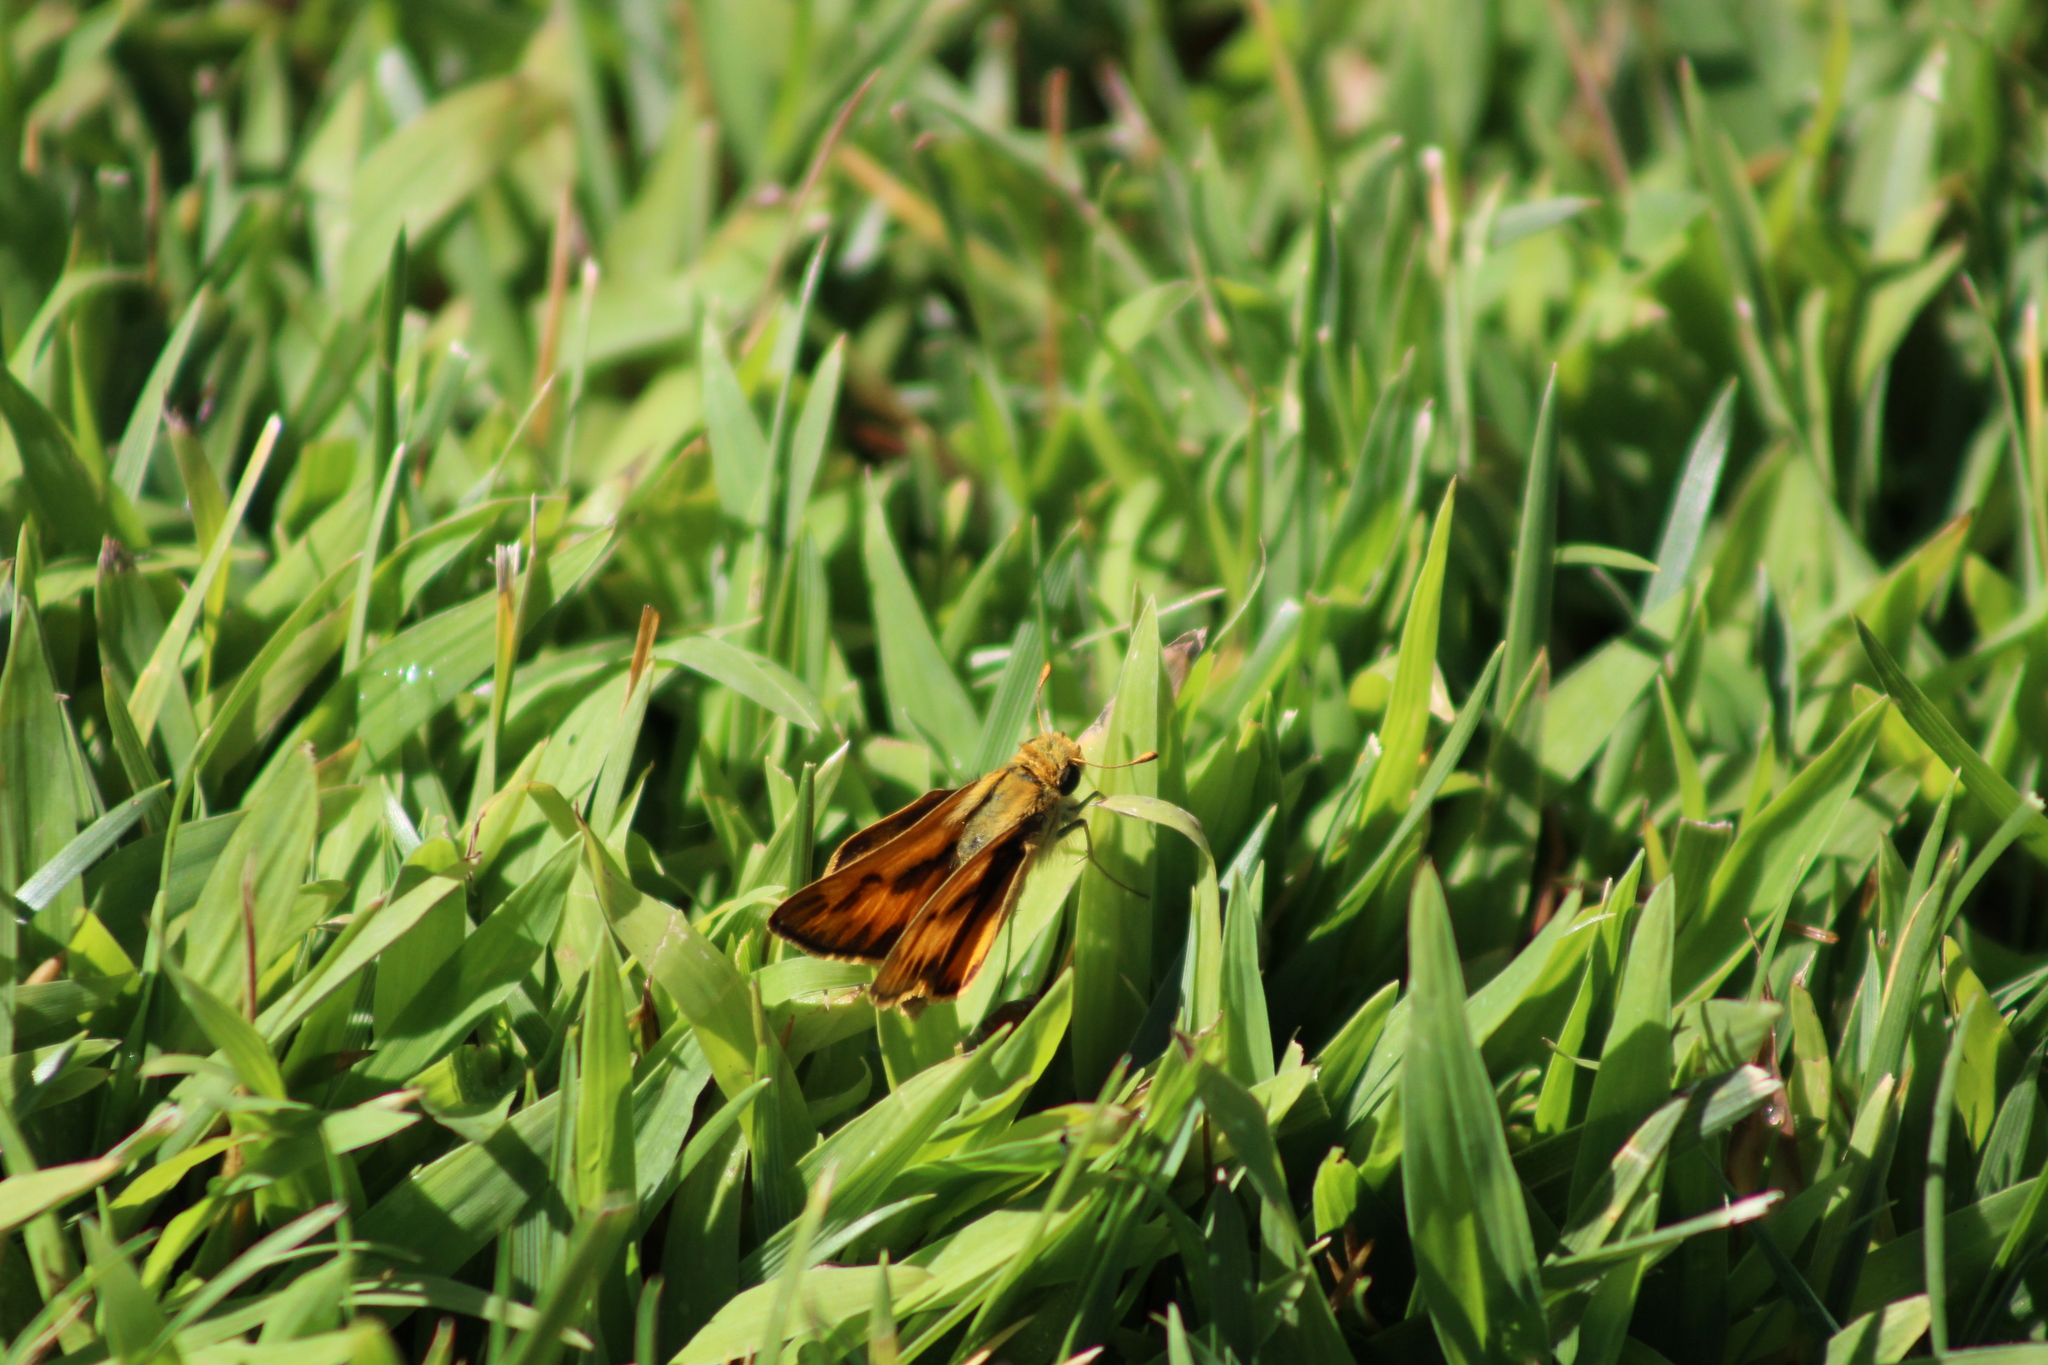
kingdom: Animalia
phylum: Arthropoda
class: Insecta
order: Lepidoptera
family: Hesperiidae
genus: Hylephila
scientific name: Hylephila phyleus
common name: Fiery skipper
